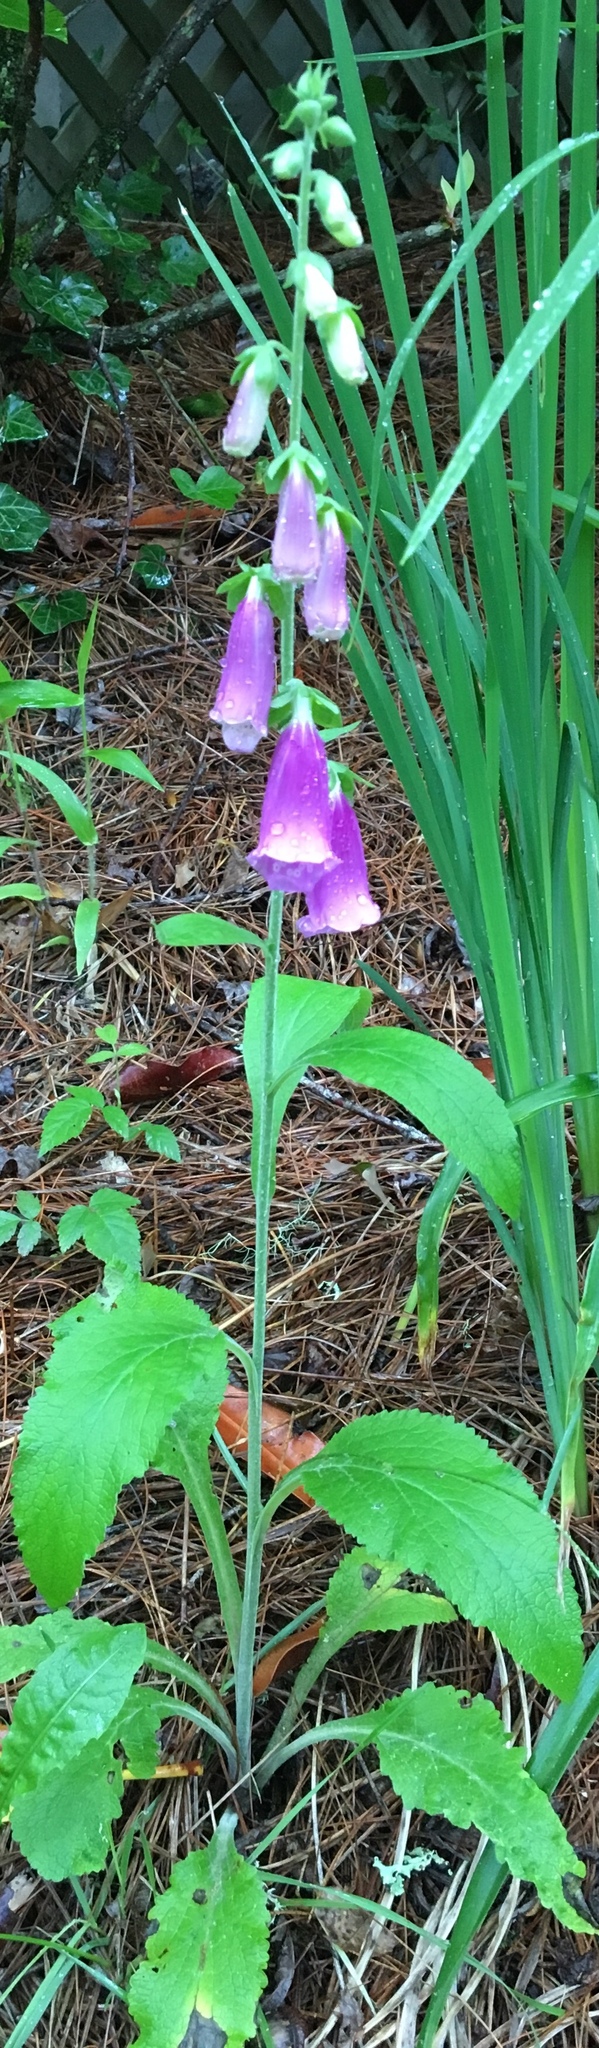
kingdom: Plantae
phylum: Tracheophyta
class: Magnoliopsida
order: Lamiales
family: Plantaginaceae
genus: Digitalis
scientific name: Digitalis purpurea
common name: Foxglove
